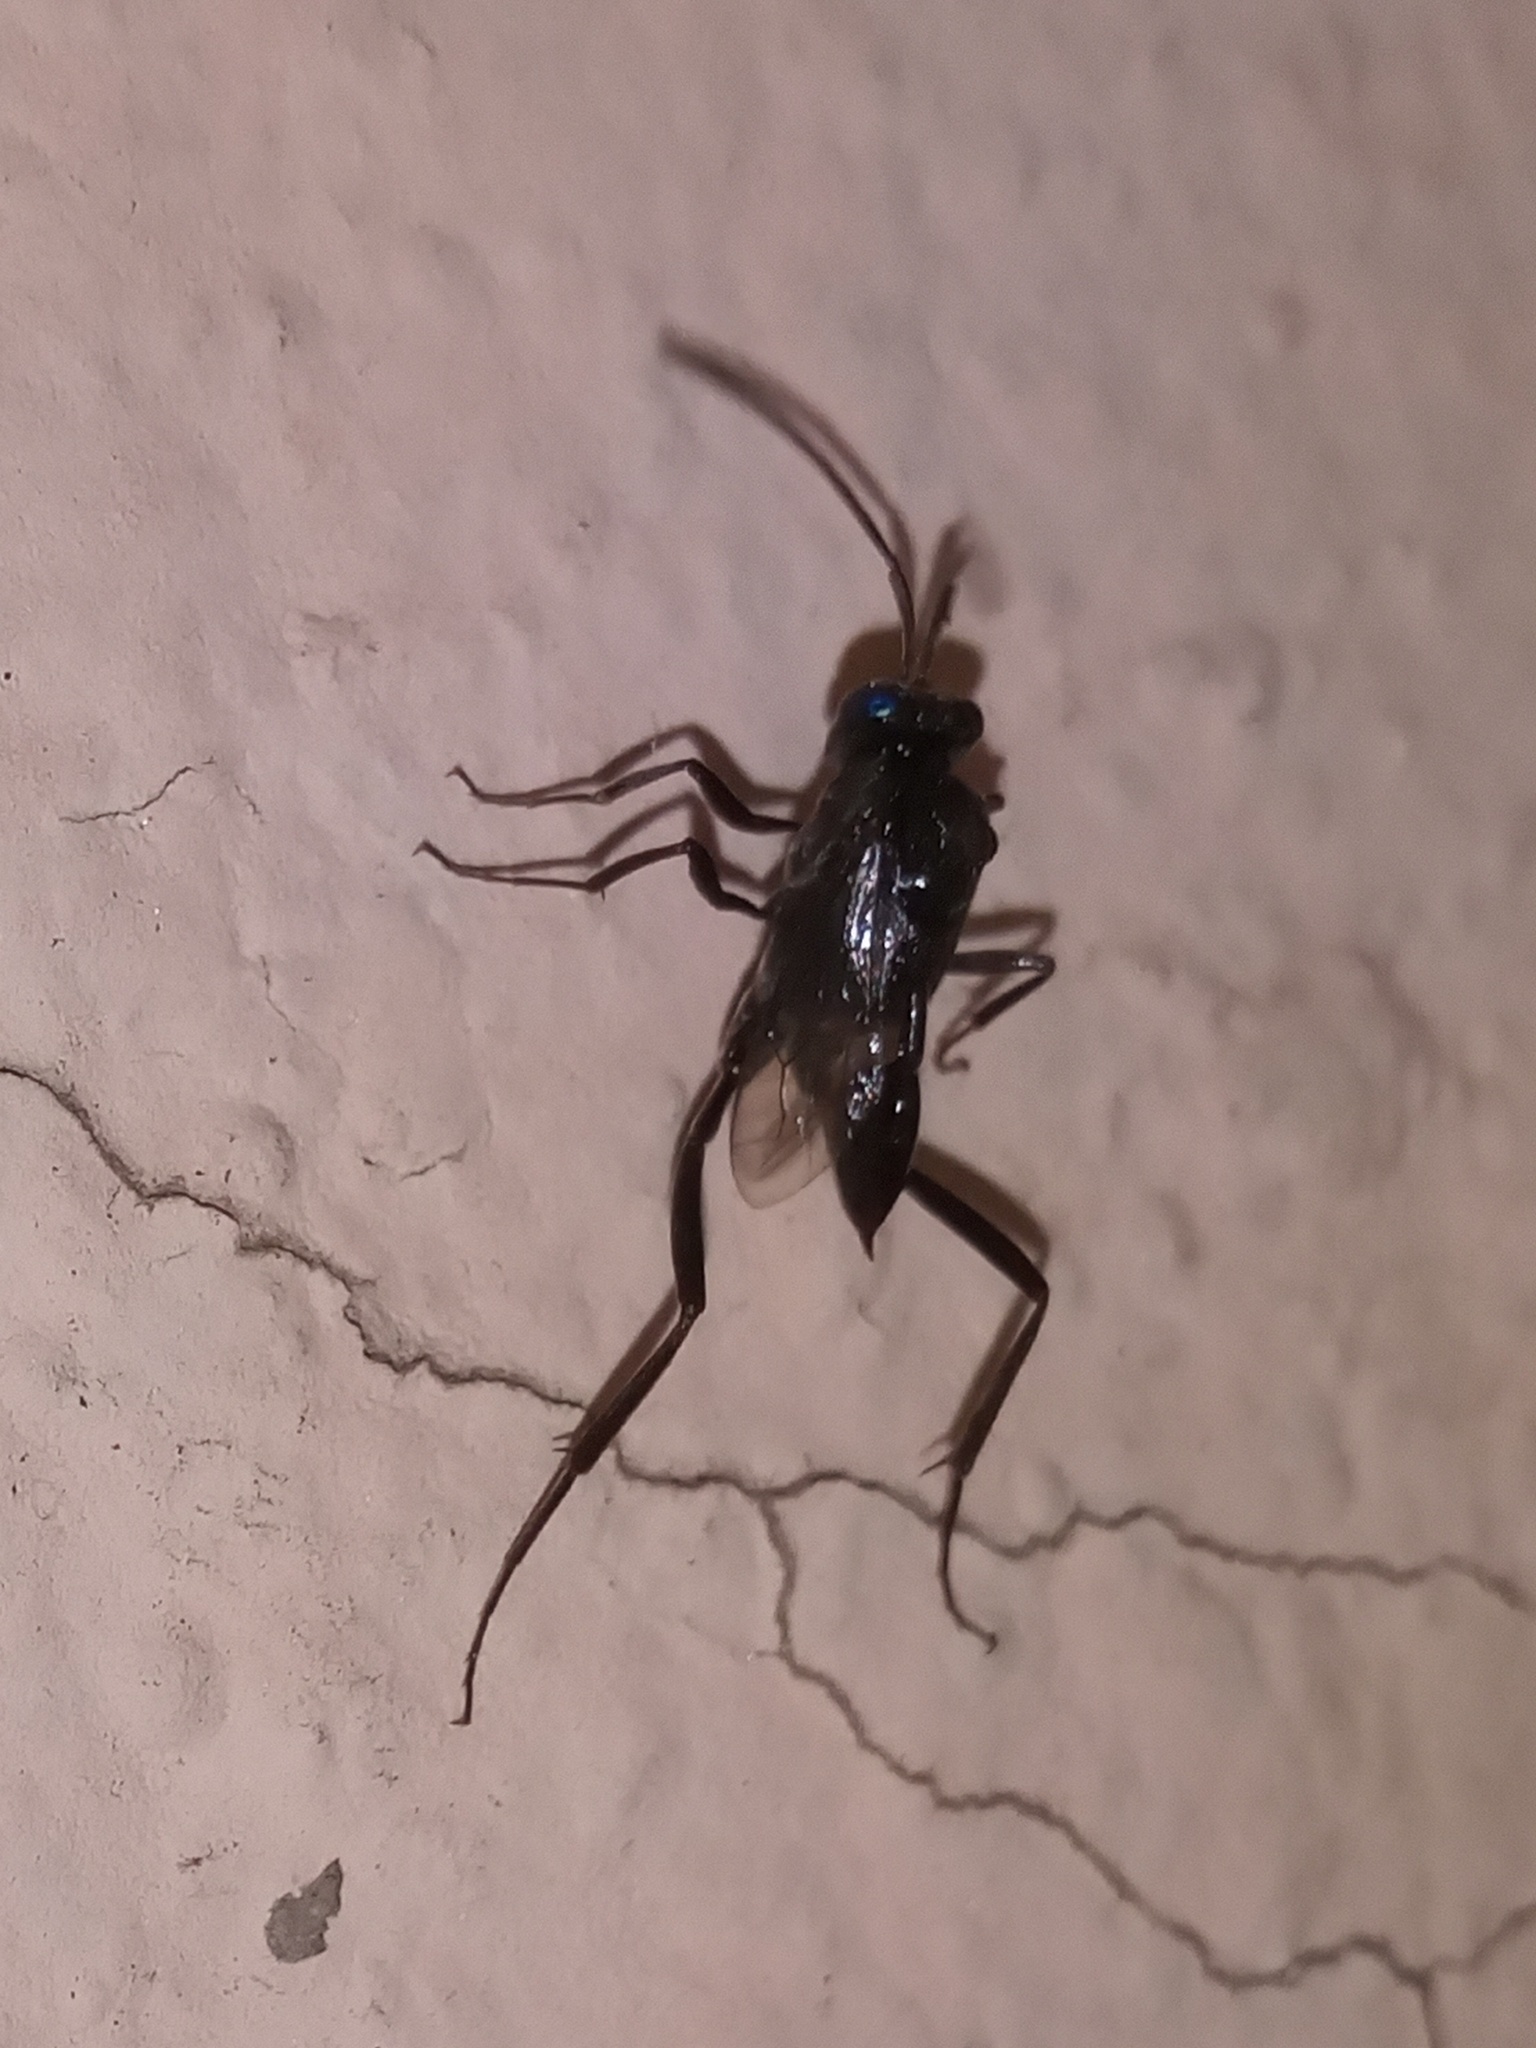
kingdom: Animalia
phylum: Arthropoda
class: Insecta
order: Hymenoptera
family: Evaniidae
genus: Evania
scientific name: Evania appendigaster
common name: Ensign wasp
